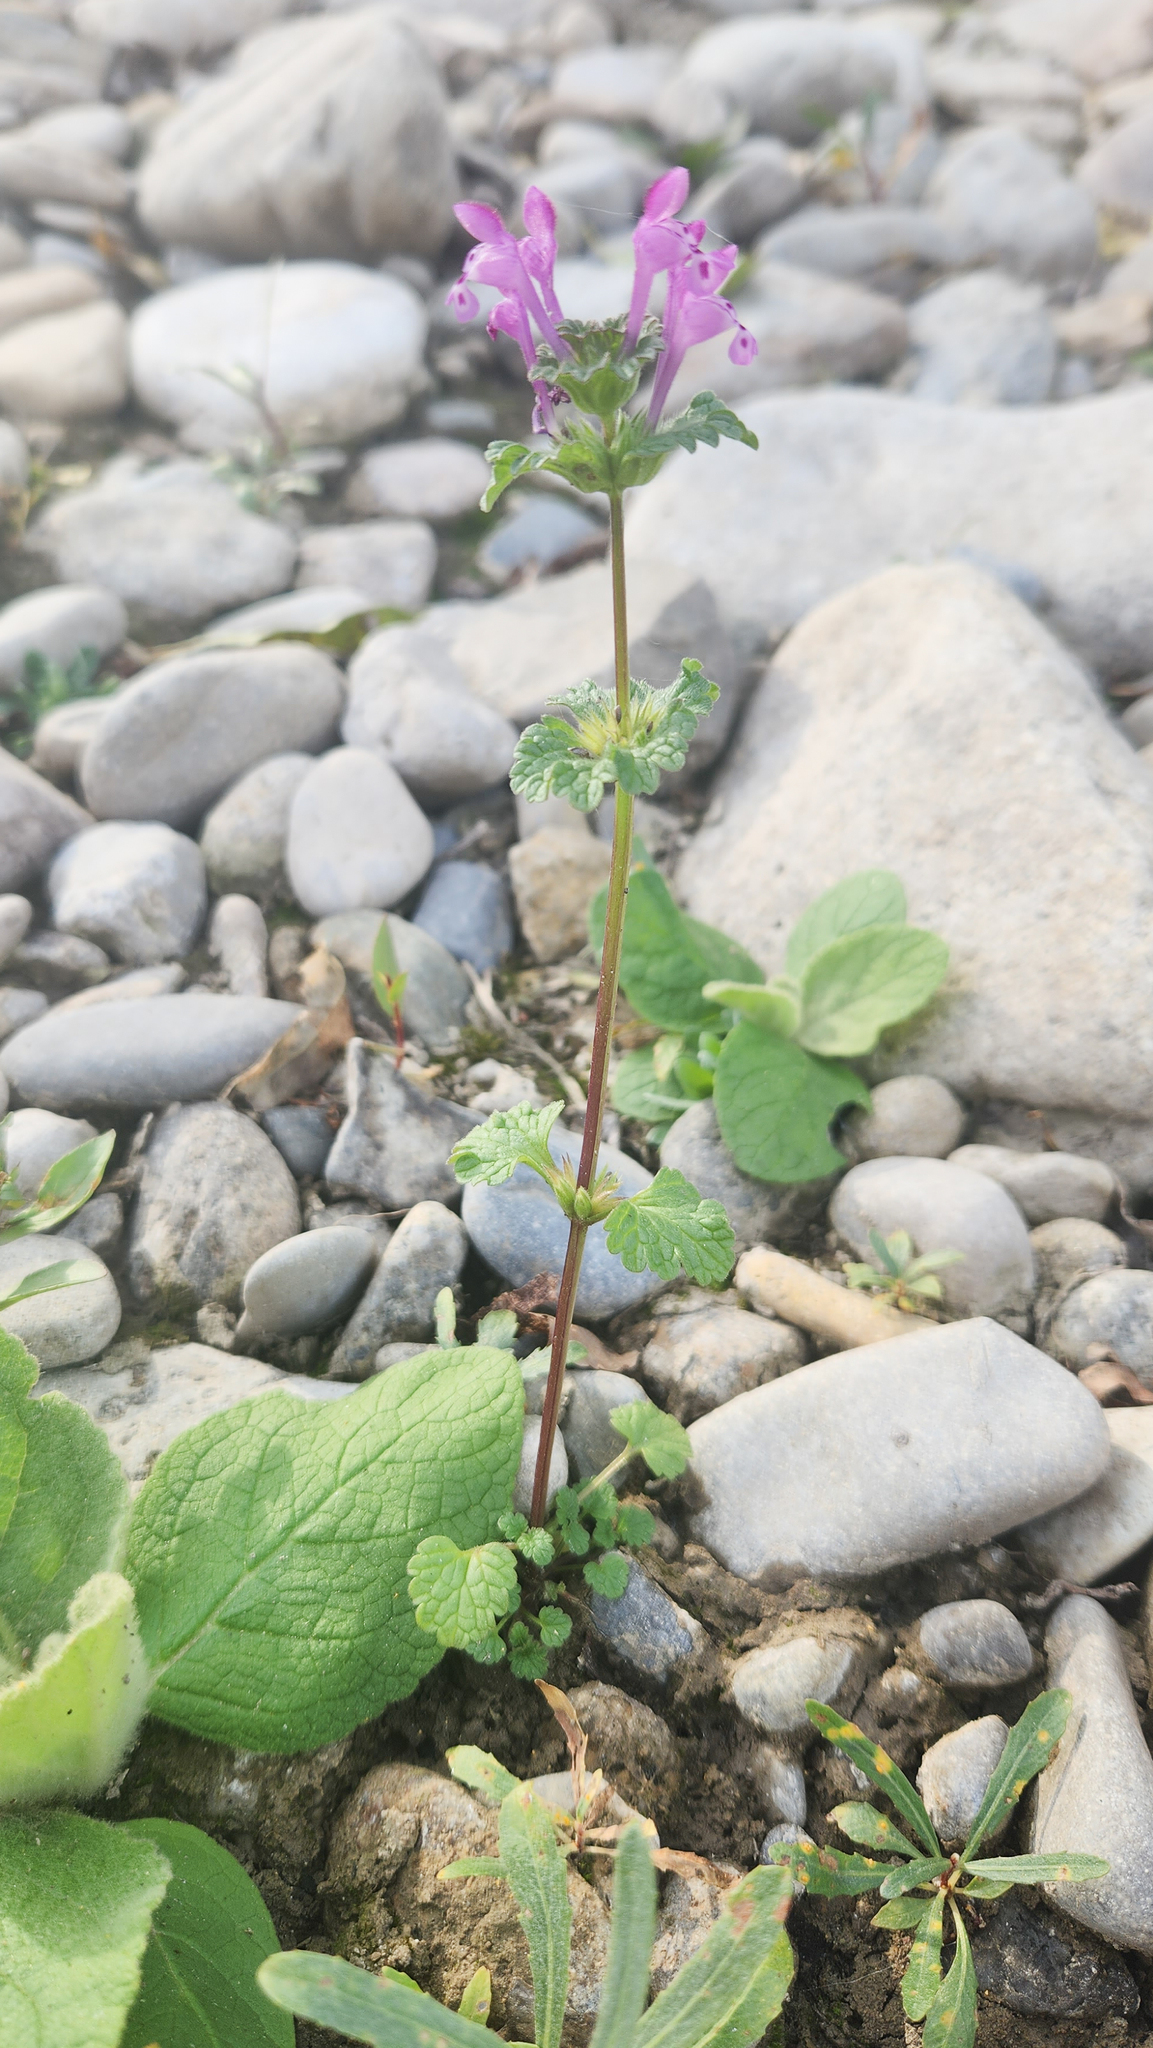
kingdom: Plantae
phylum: Tracheophyta
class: Magnoliopsida
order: Lamiales
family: Lamiaceae
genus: Lamium
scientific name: Lamium amplexicaule
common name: Henbit dead-nettle
